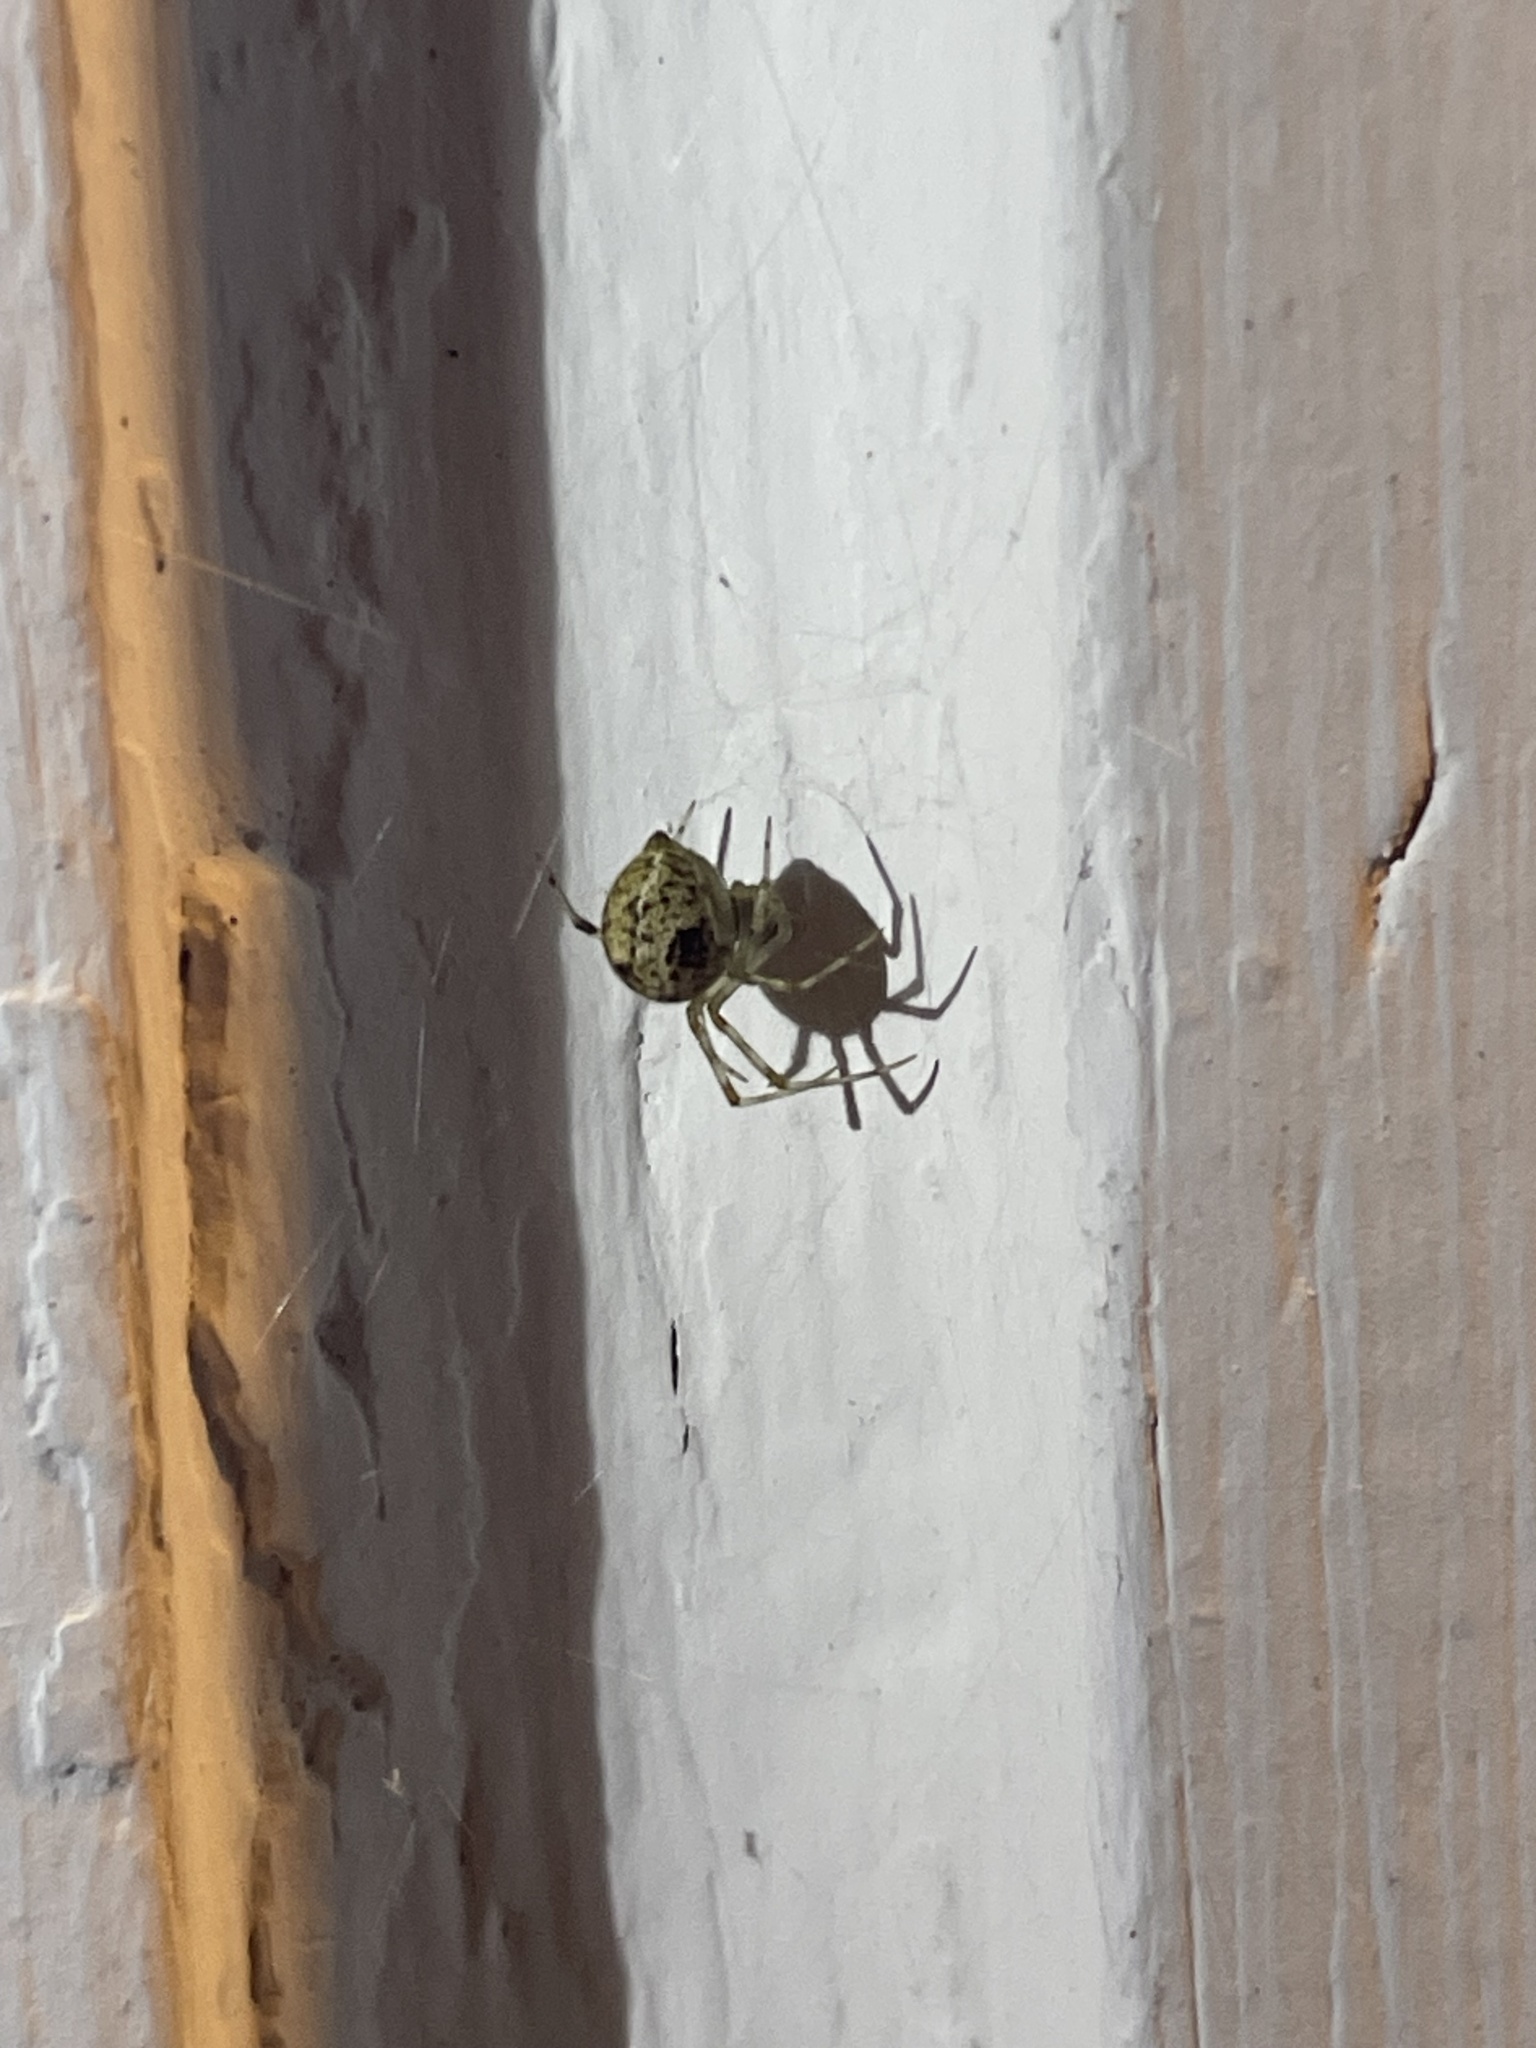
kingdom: Animalia
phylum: Arthropoda
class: Arachnida
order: Araneae
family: Theridiidae
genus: Parasteatoda
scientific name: Parasteatoda tepidariorum
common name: Common house spider
